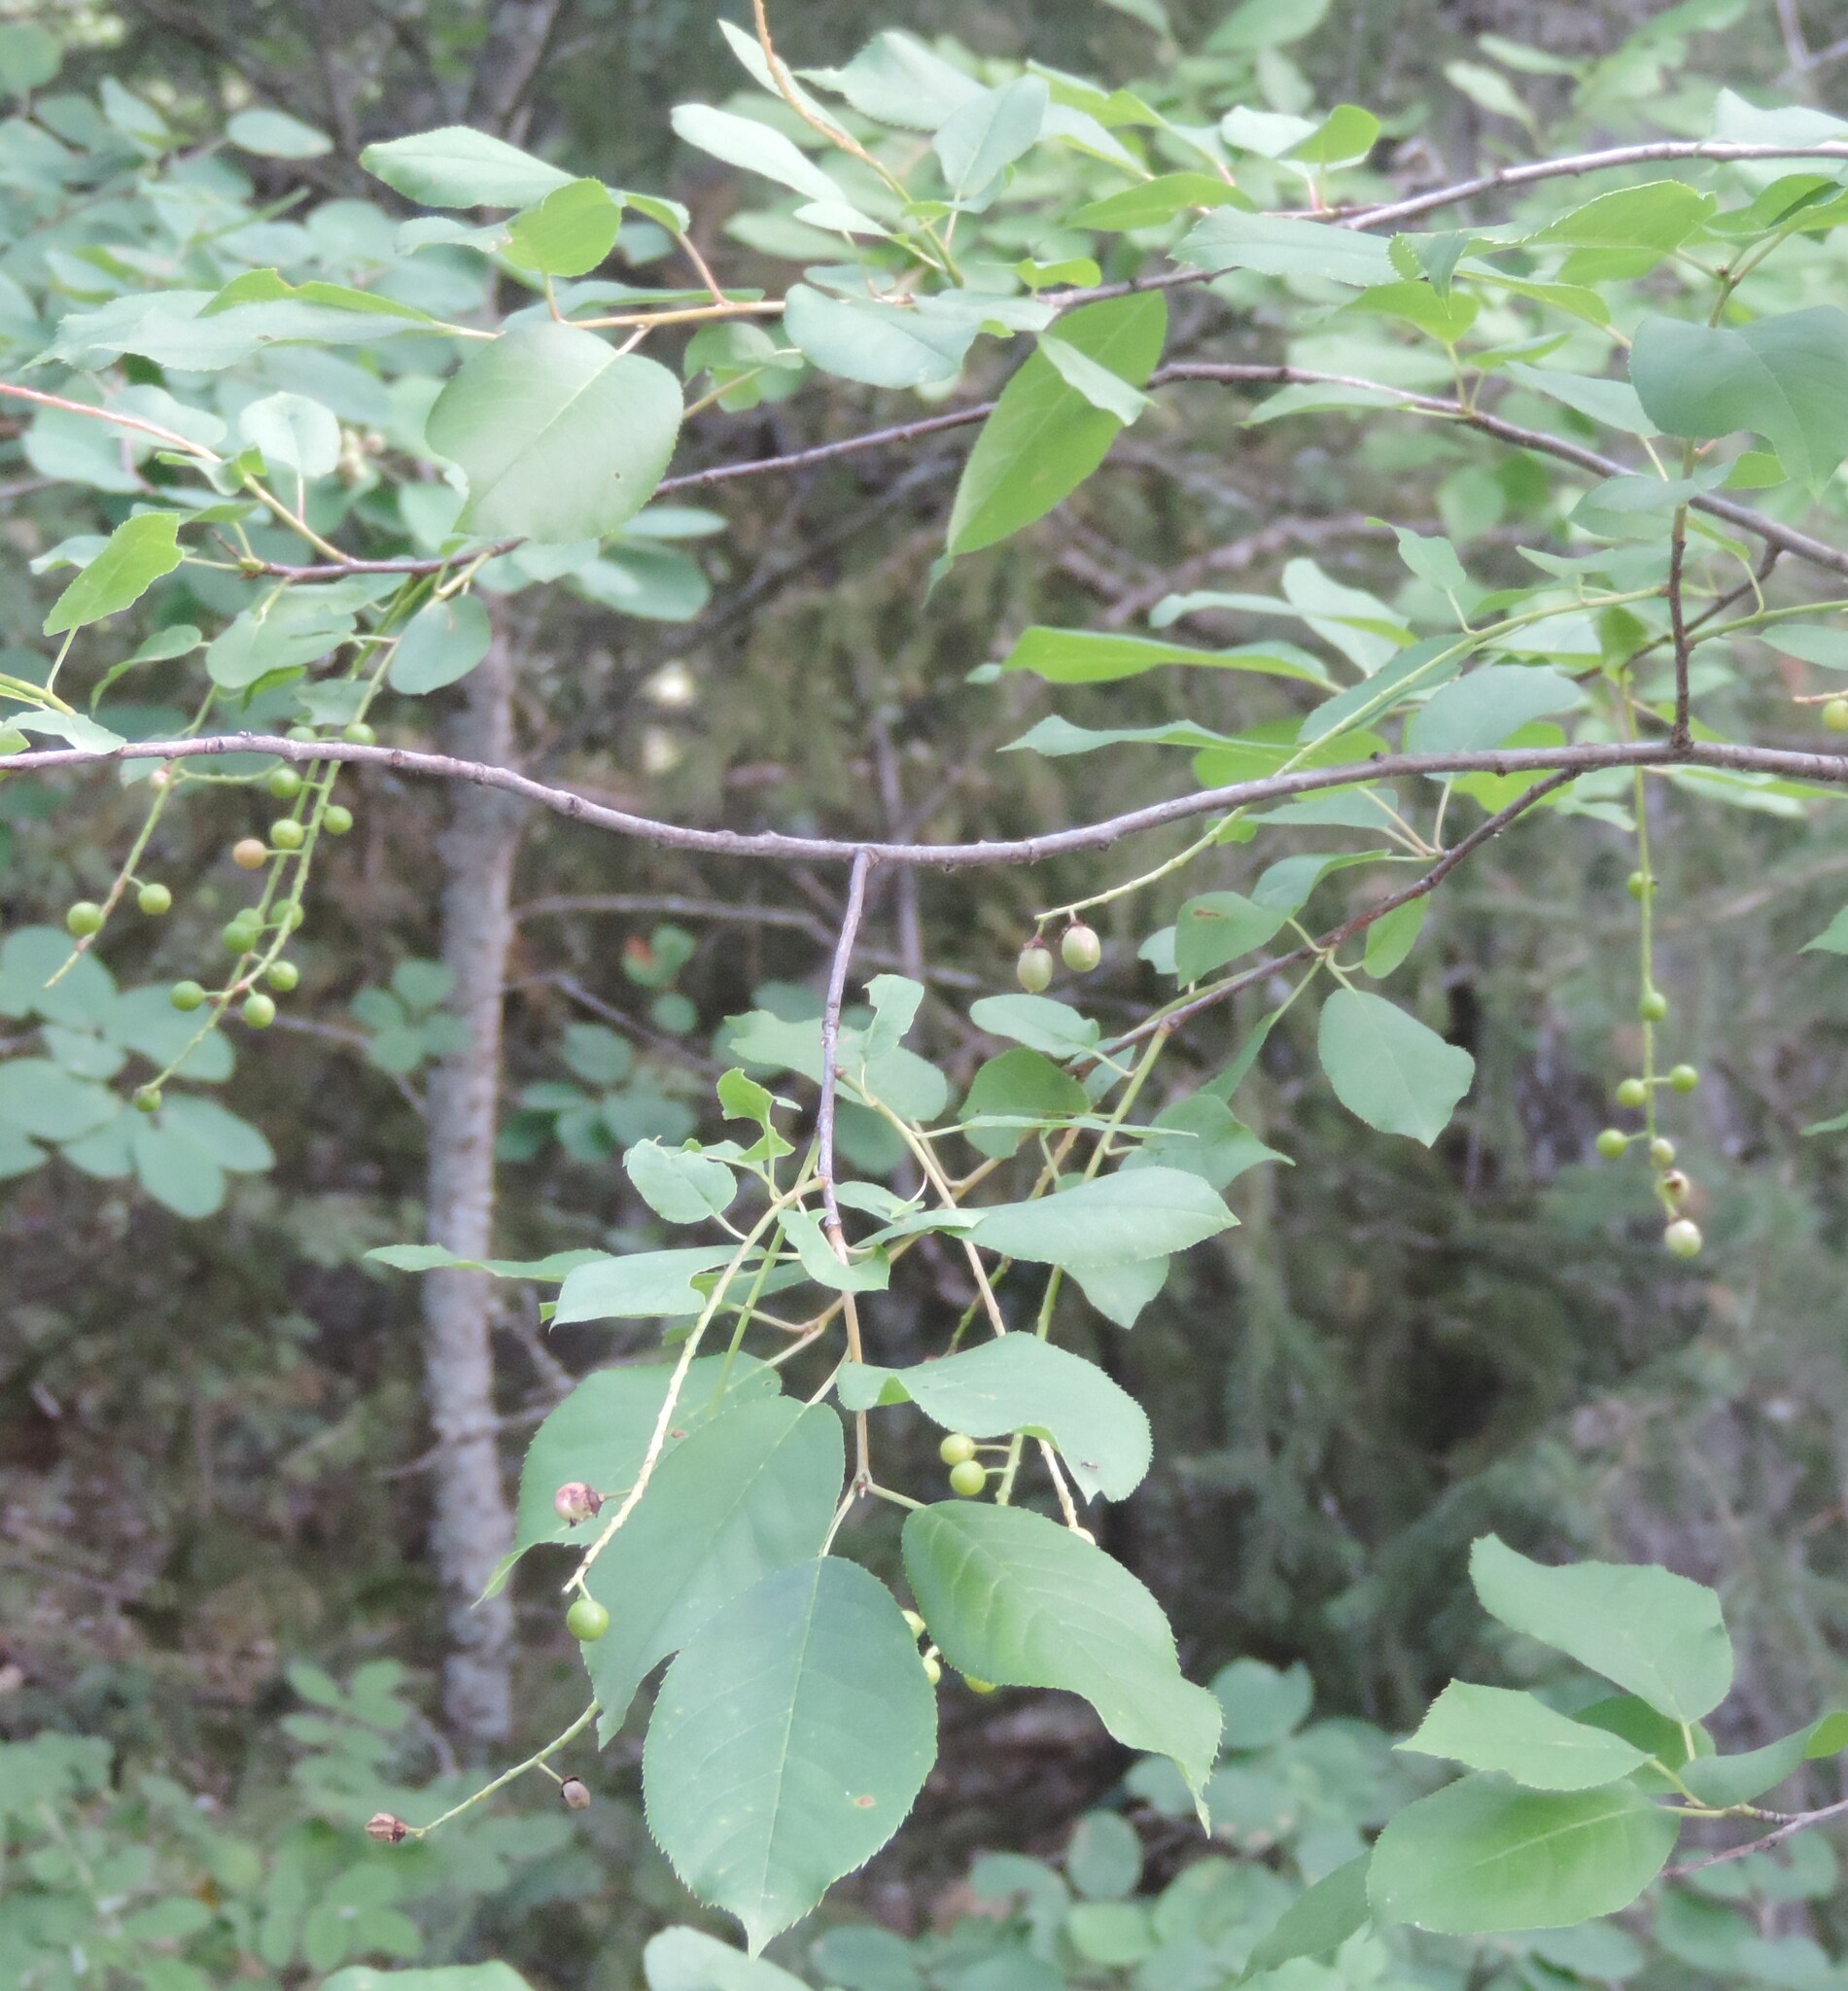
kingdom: Plantae
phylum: Tracheophyta
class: Magnoliopsida
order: Rosales
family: Rosaceae
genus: Prunus
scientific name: Prunus virginiana
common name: Chokecherry
